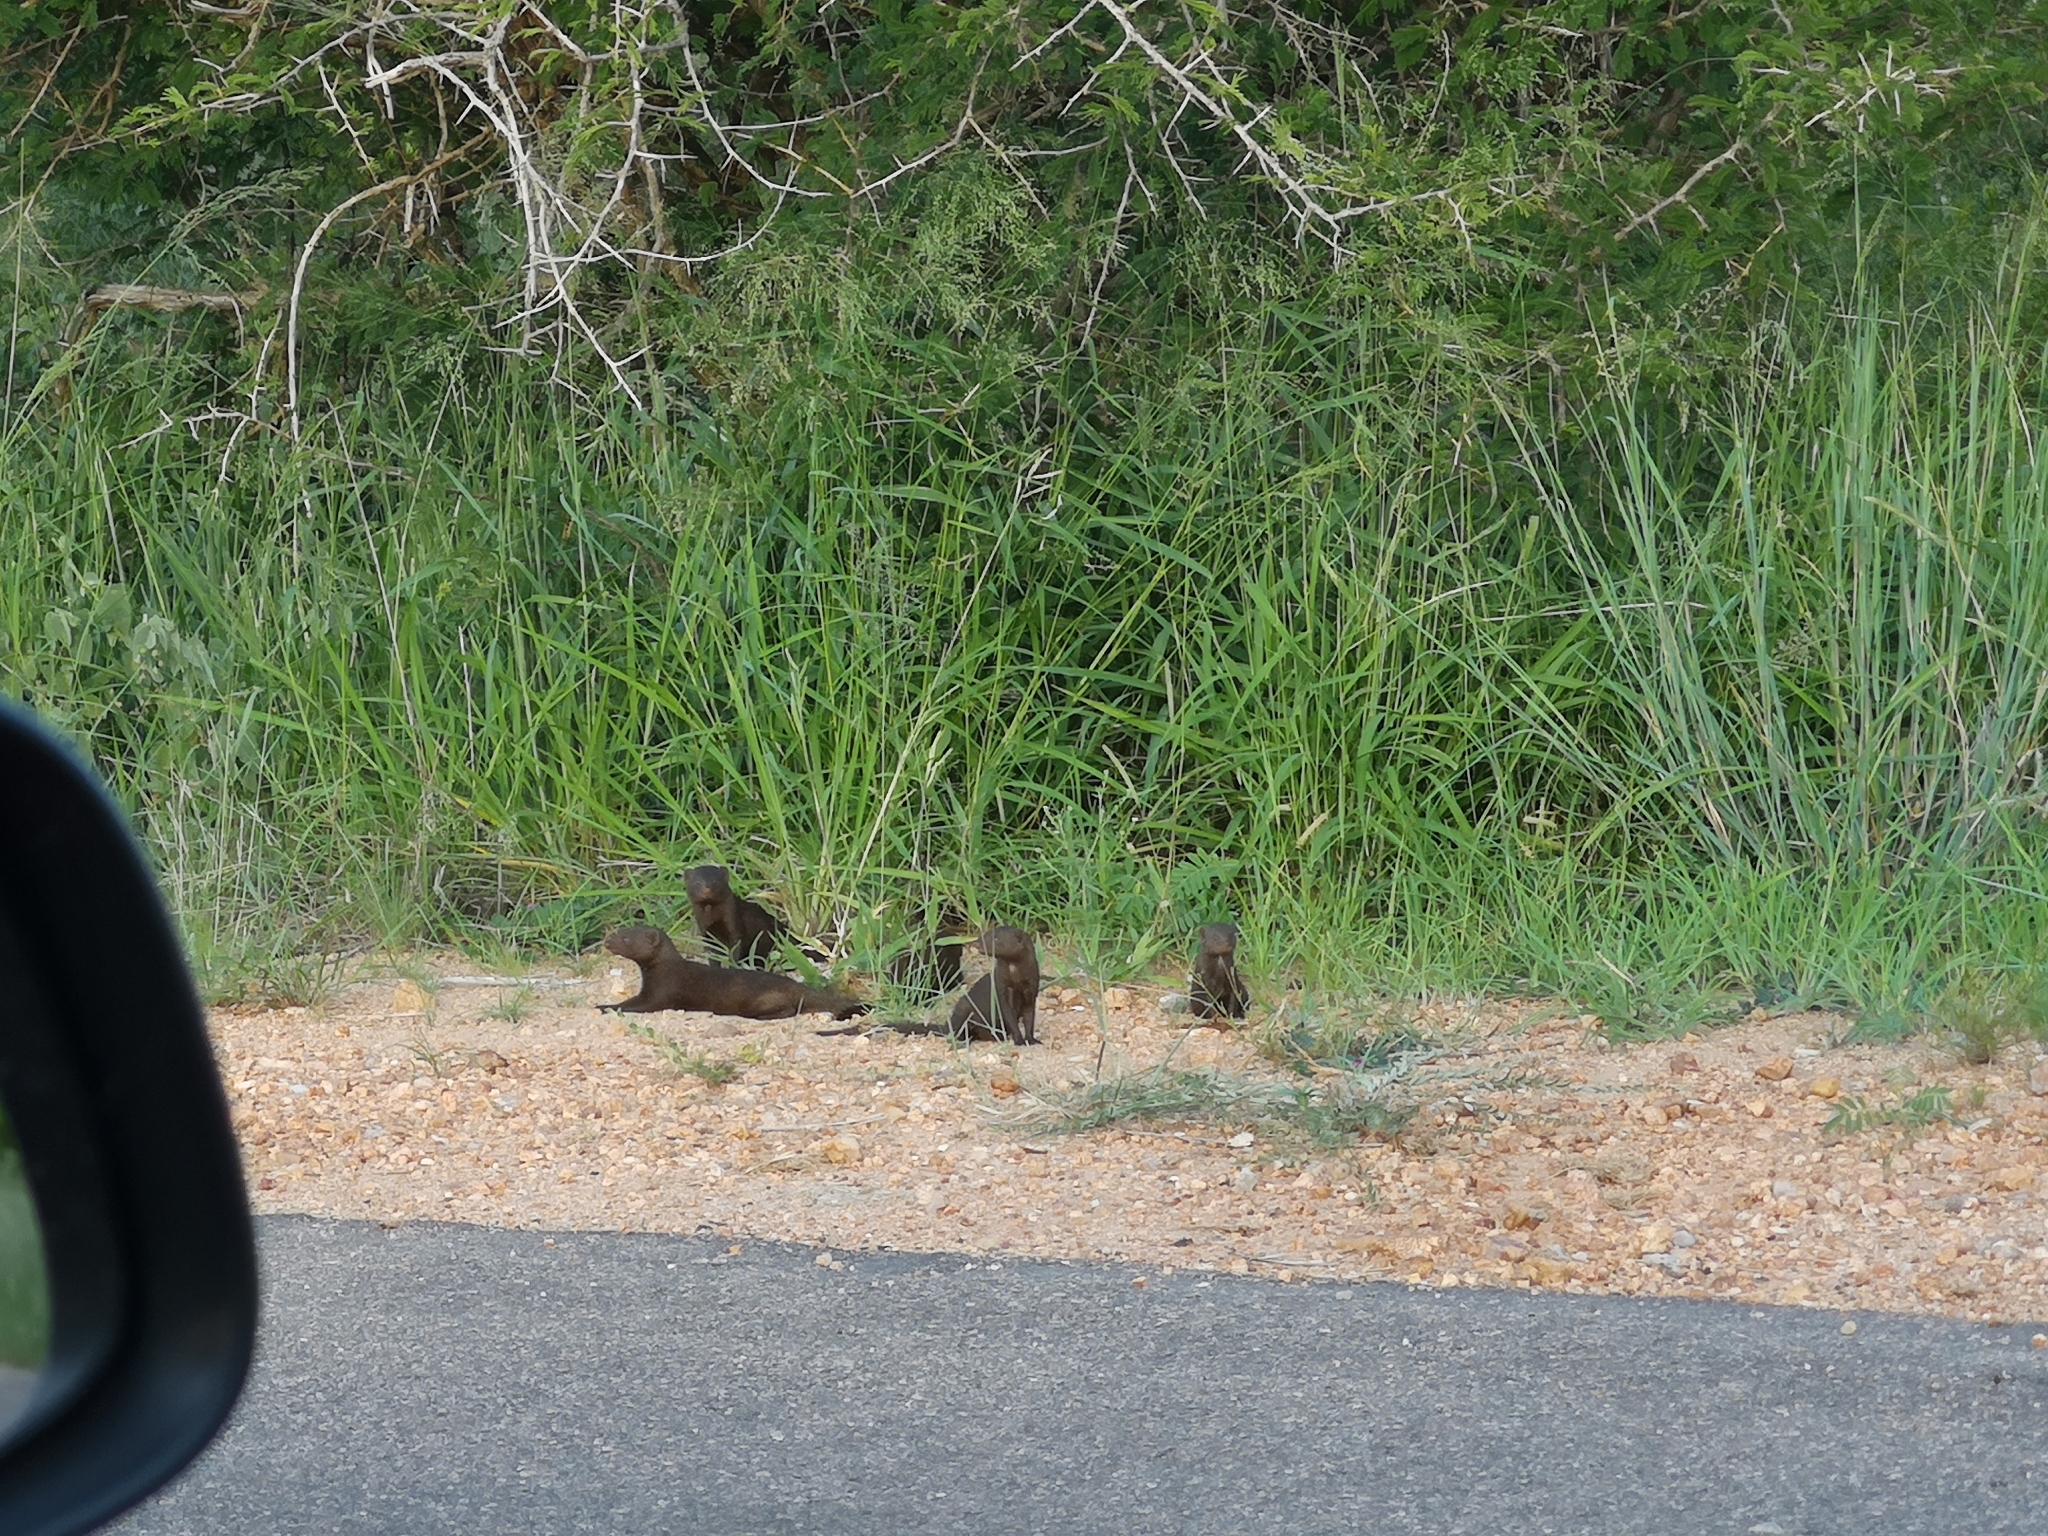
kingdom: Animalia
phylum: Chordata
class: Mammalia
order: Carnivora
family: Herpestidae
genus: Helogale
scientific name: Helogale parvula
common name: Common dwarf mongoose
